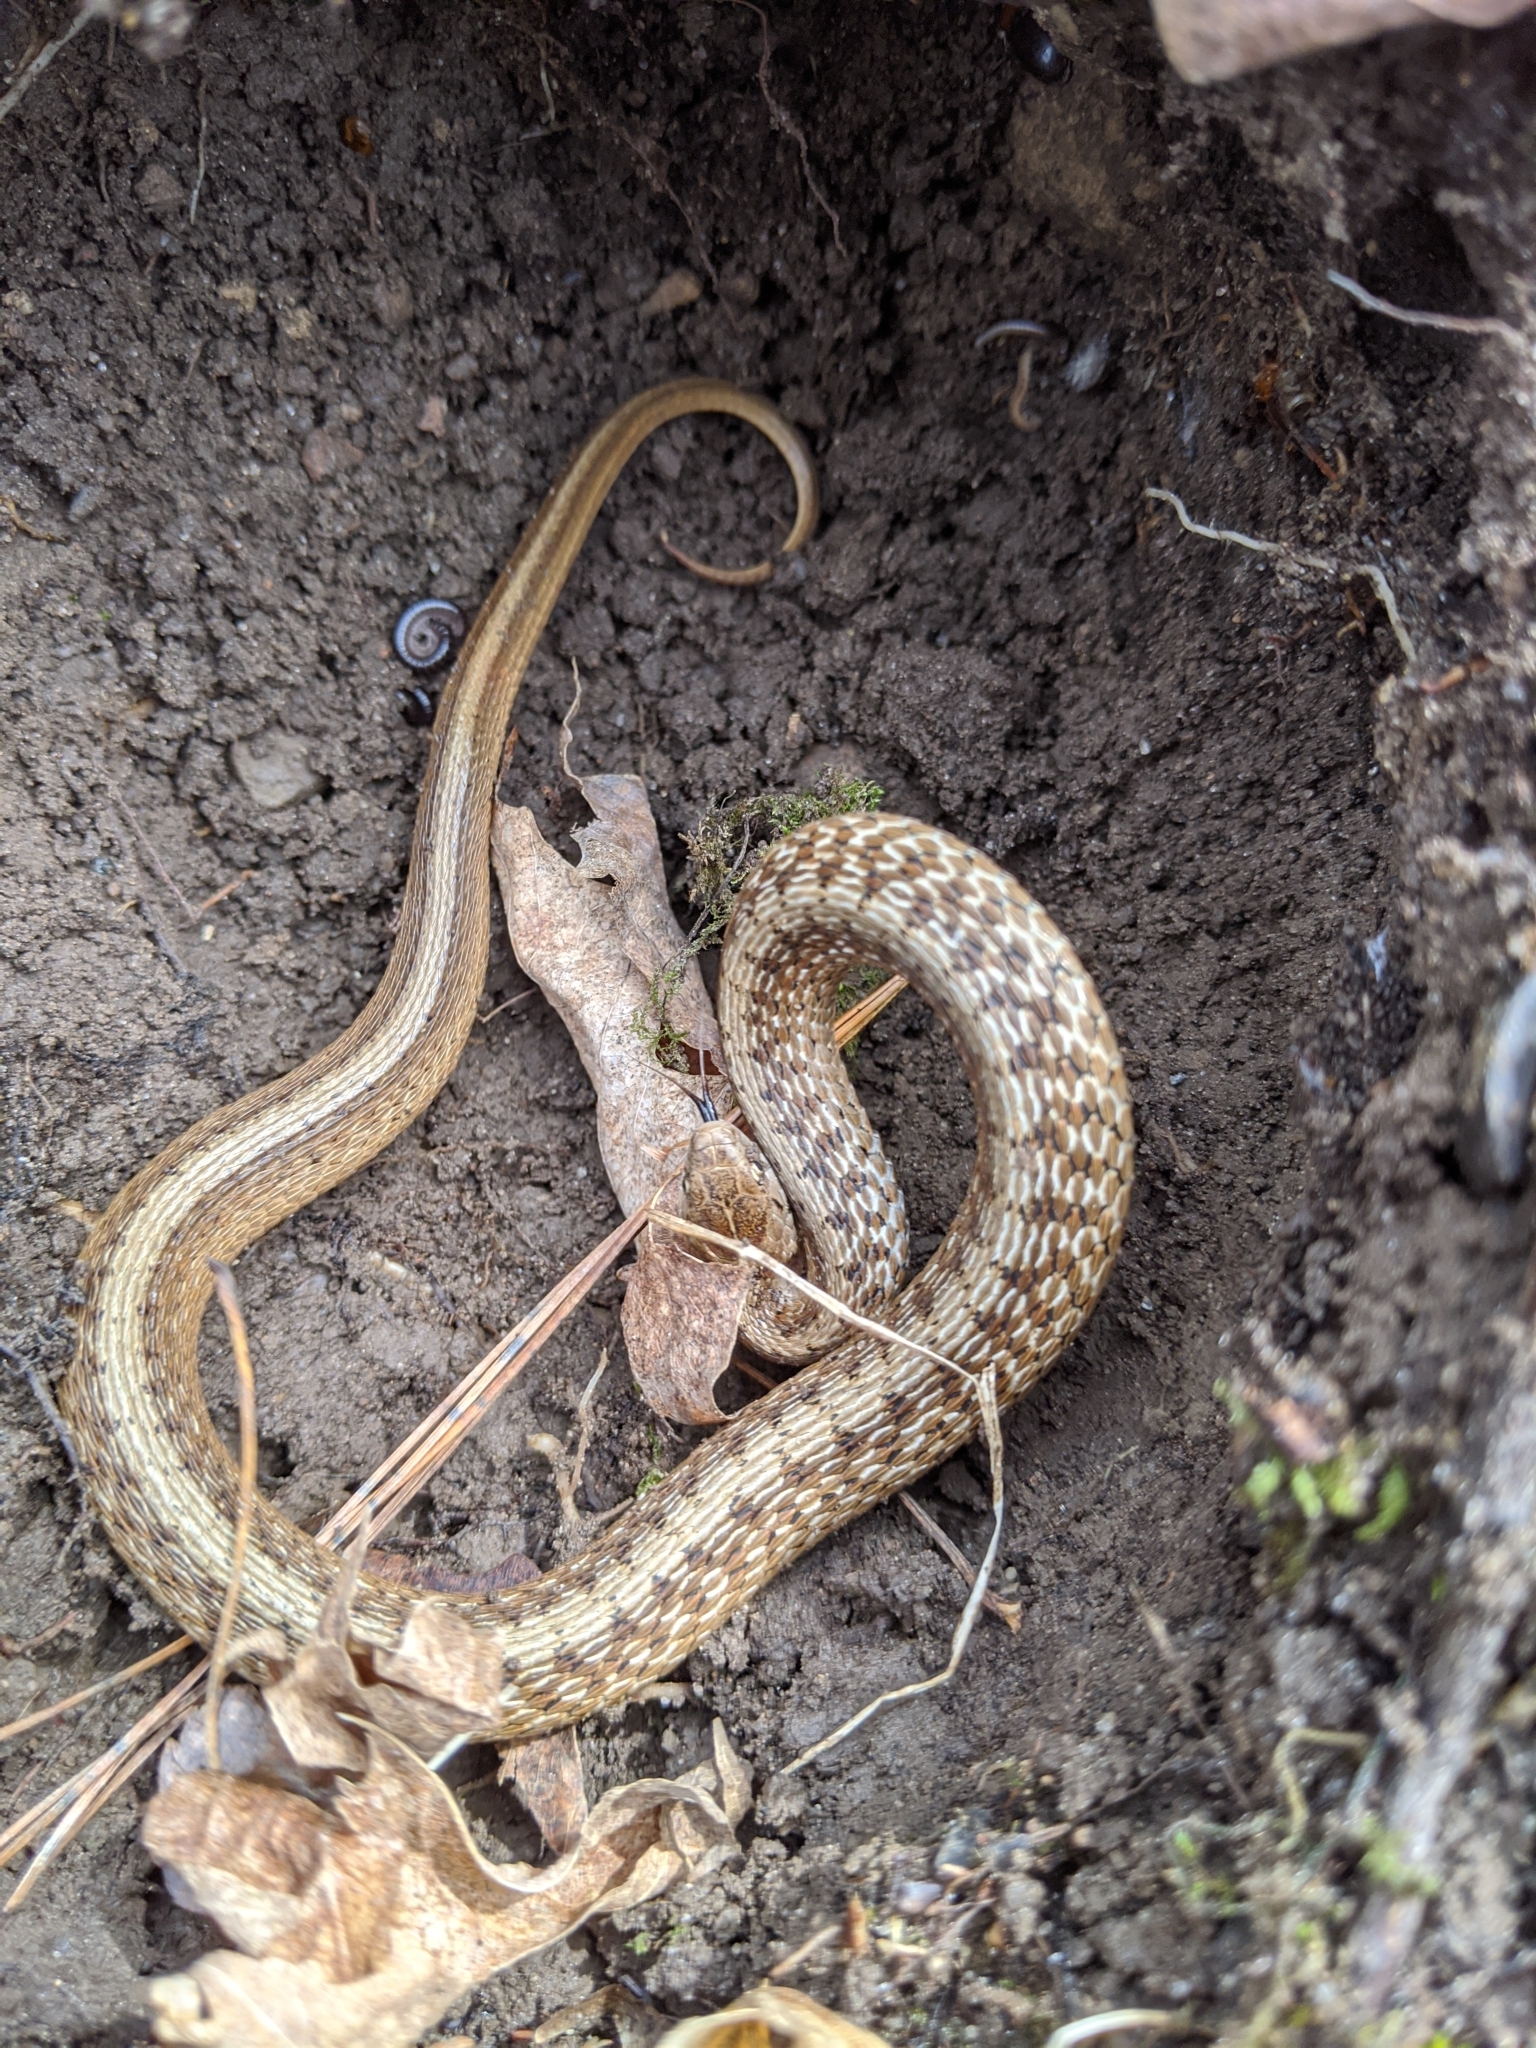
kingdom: Animalia
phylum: Chordata
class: Squamata
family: Colubridae
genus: Storeria
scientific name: Storeria dekayi
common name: (dekay’s) brown snake
